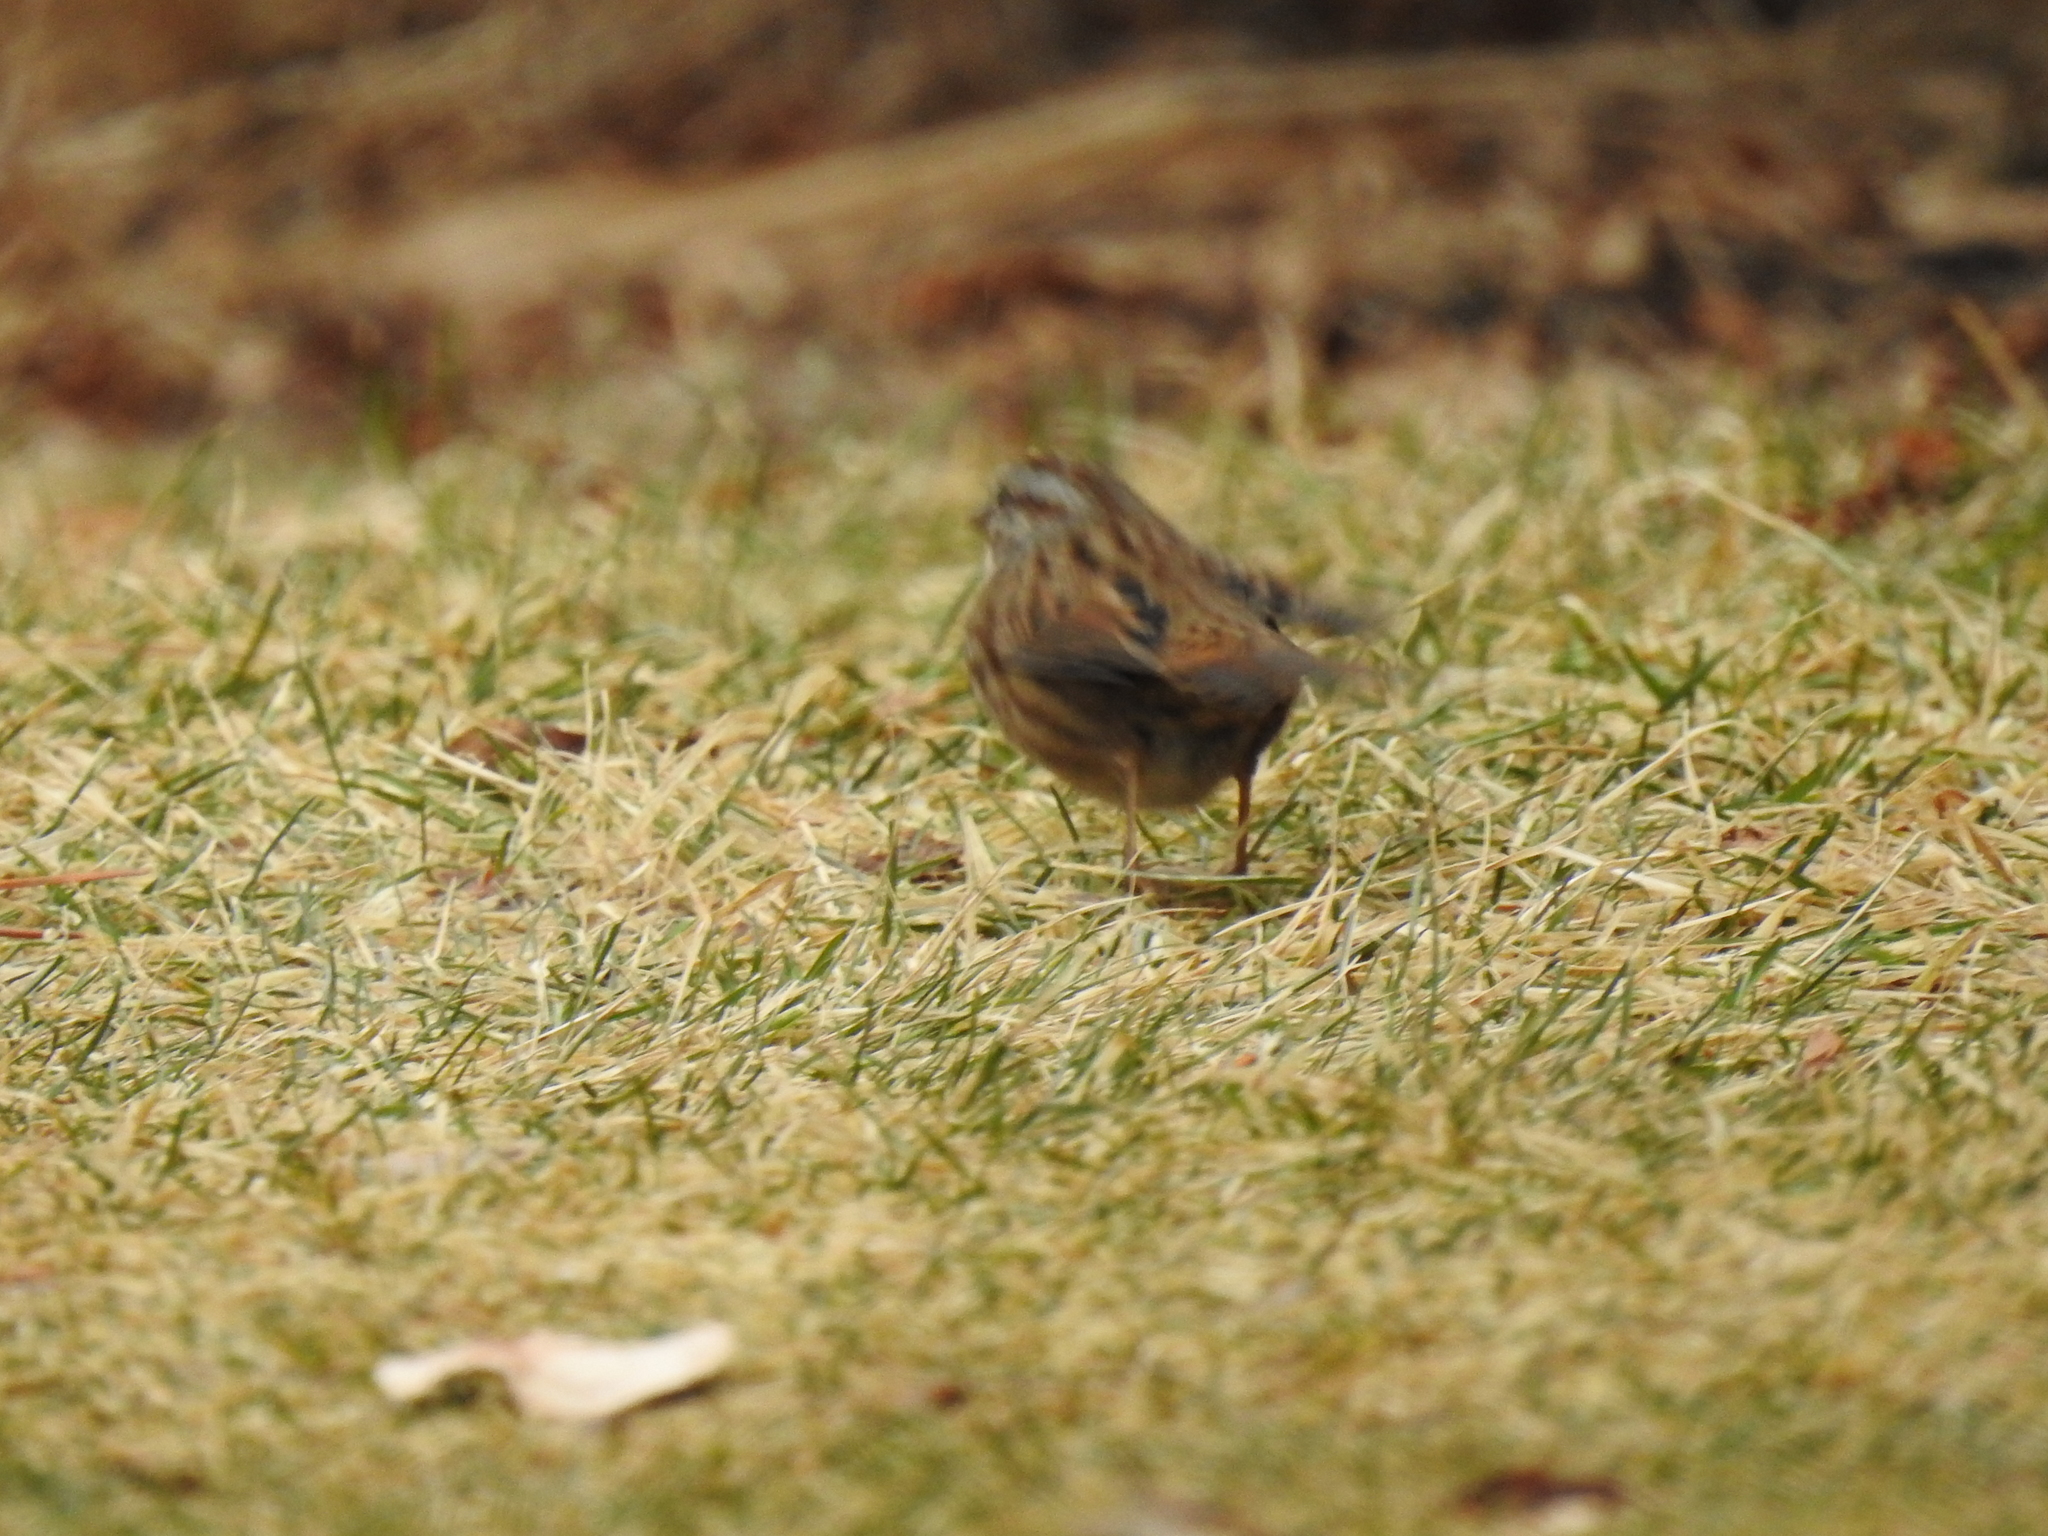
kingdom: Animalia
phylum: Chordata
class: Aves
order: Passeriformes
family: Passerellidae
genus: Melospiza
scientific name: Melospiza melodia
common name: Song sparrow
